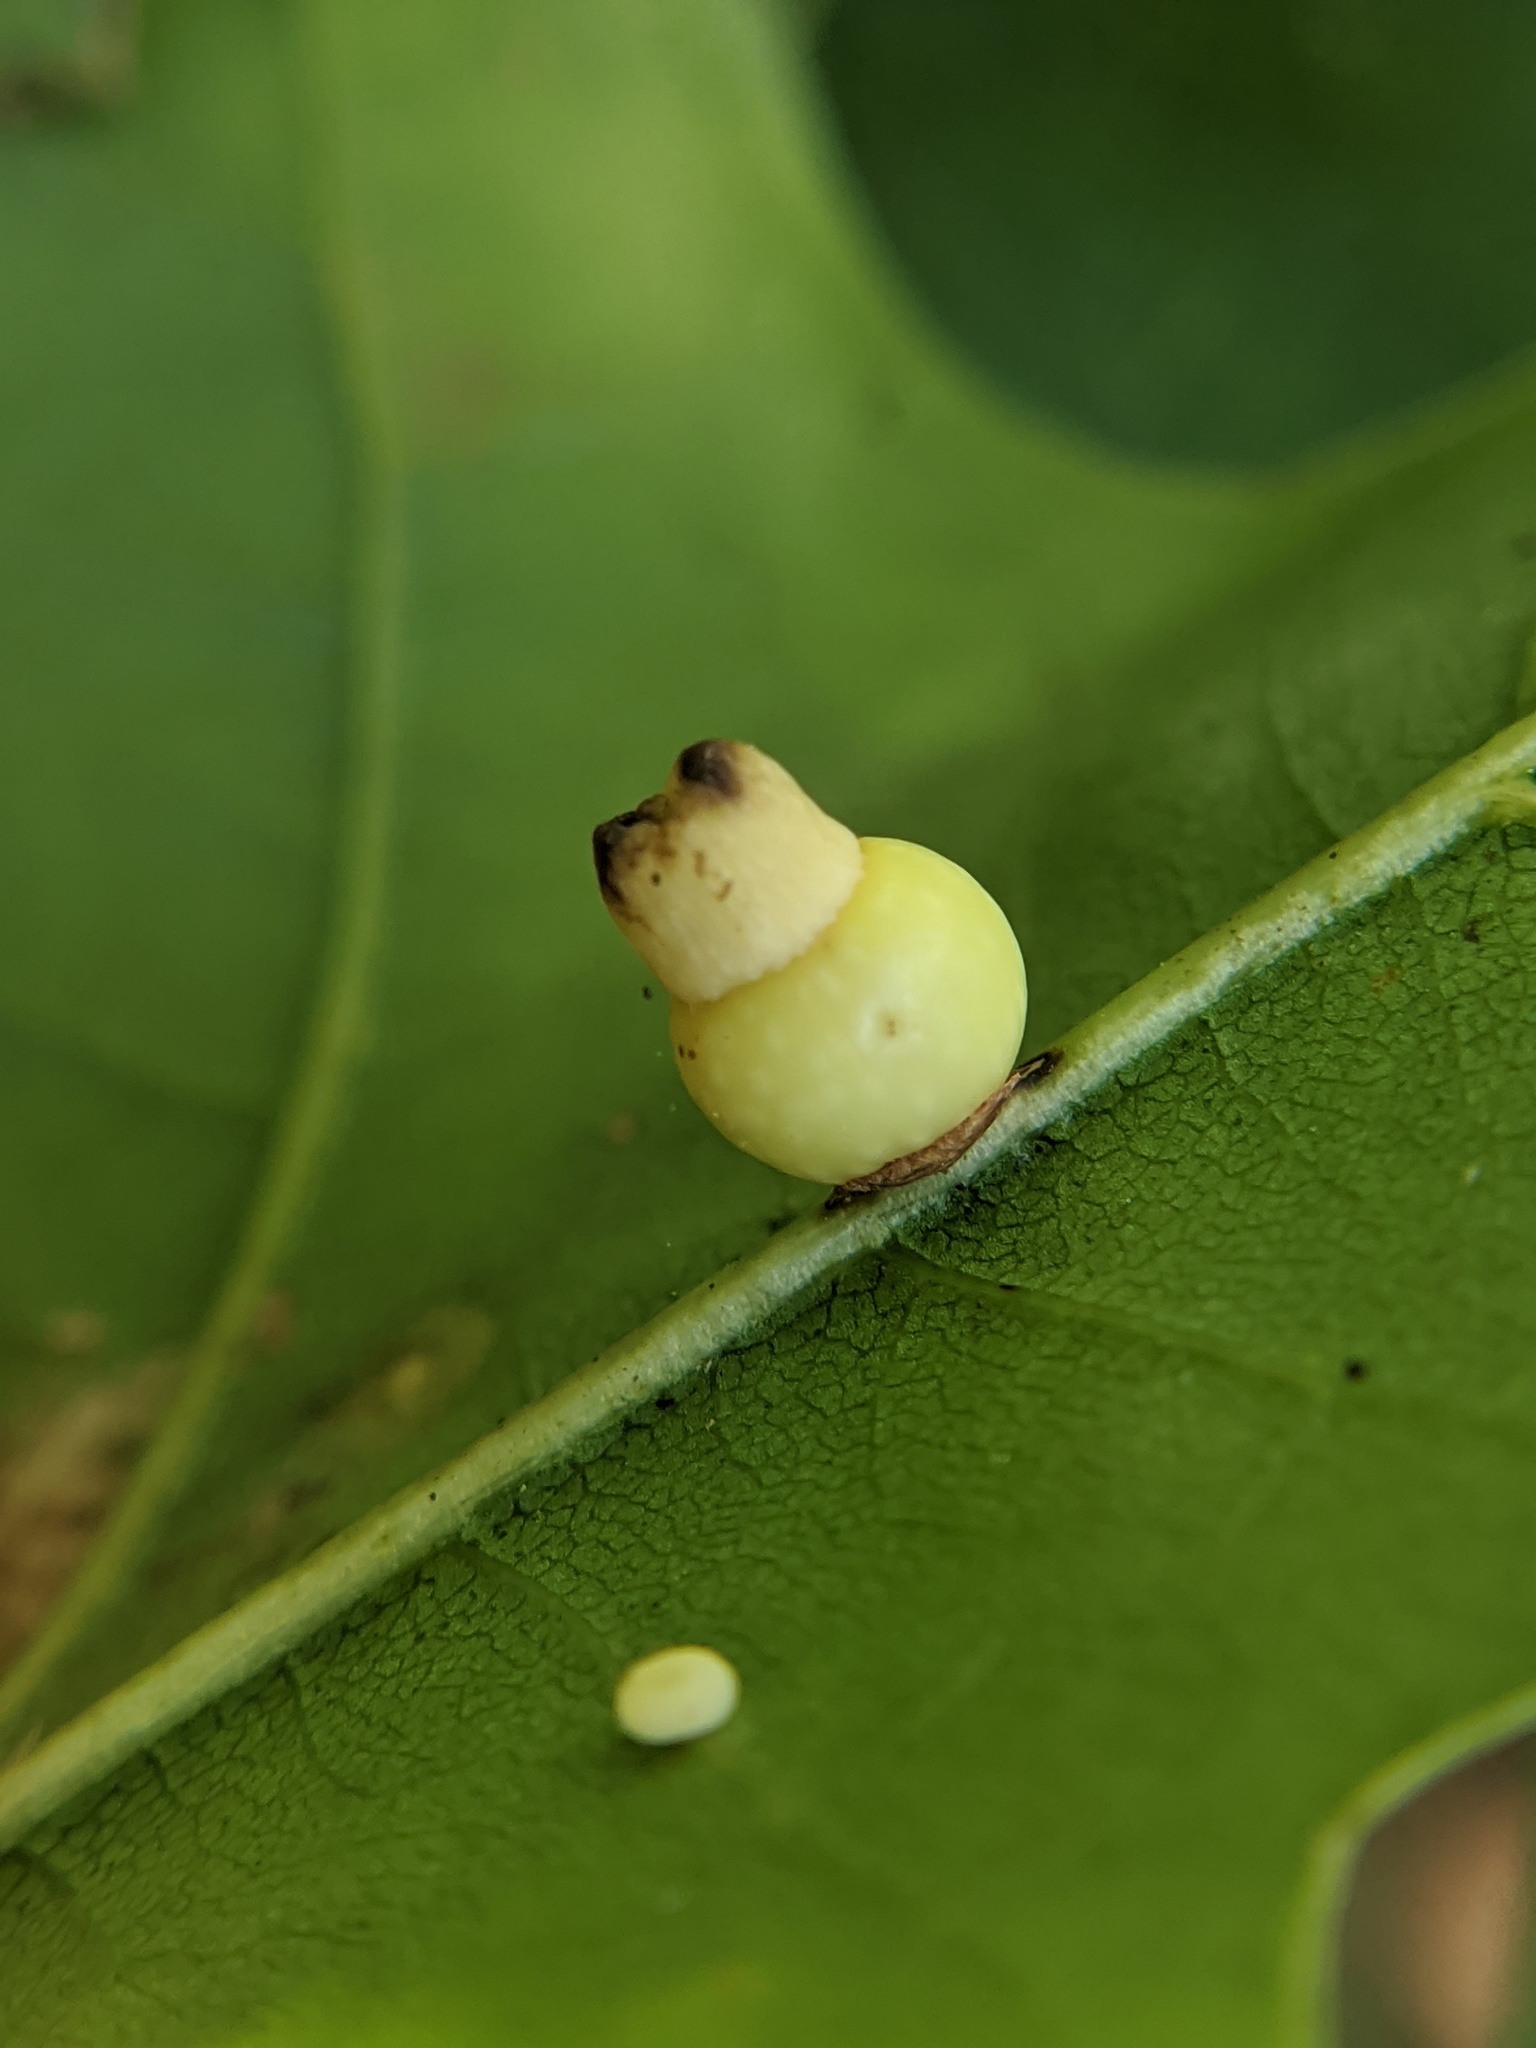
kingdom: Animalia
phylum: Arthropoda
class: Insecta
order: Hymenoptera
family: Cynipidae
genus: Kokkocynips
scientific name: Kokkocynips rileyi
